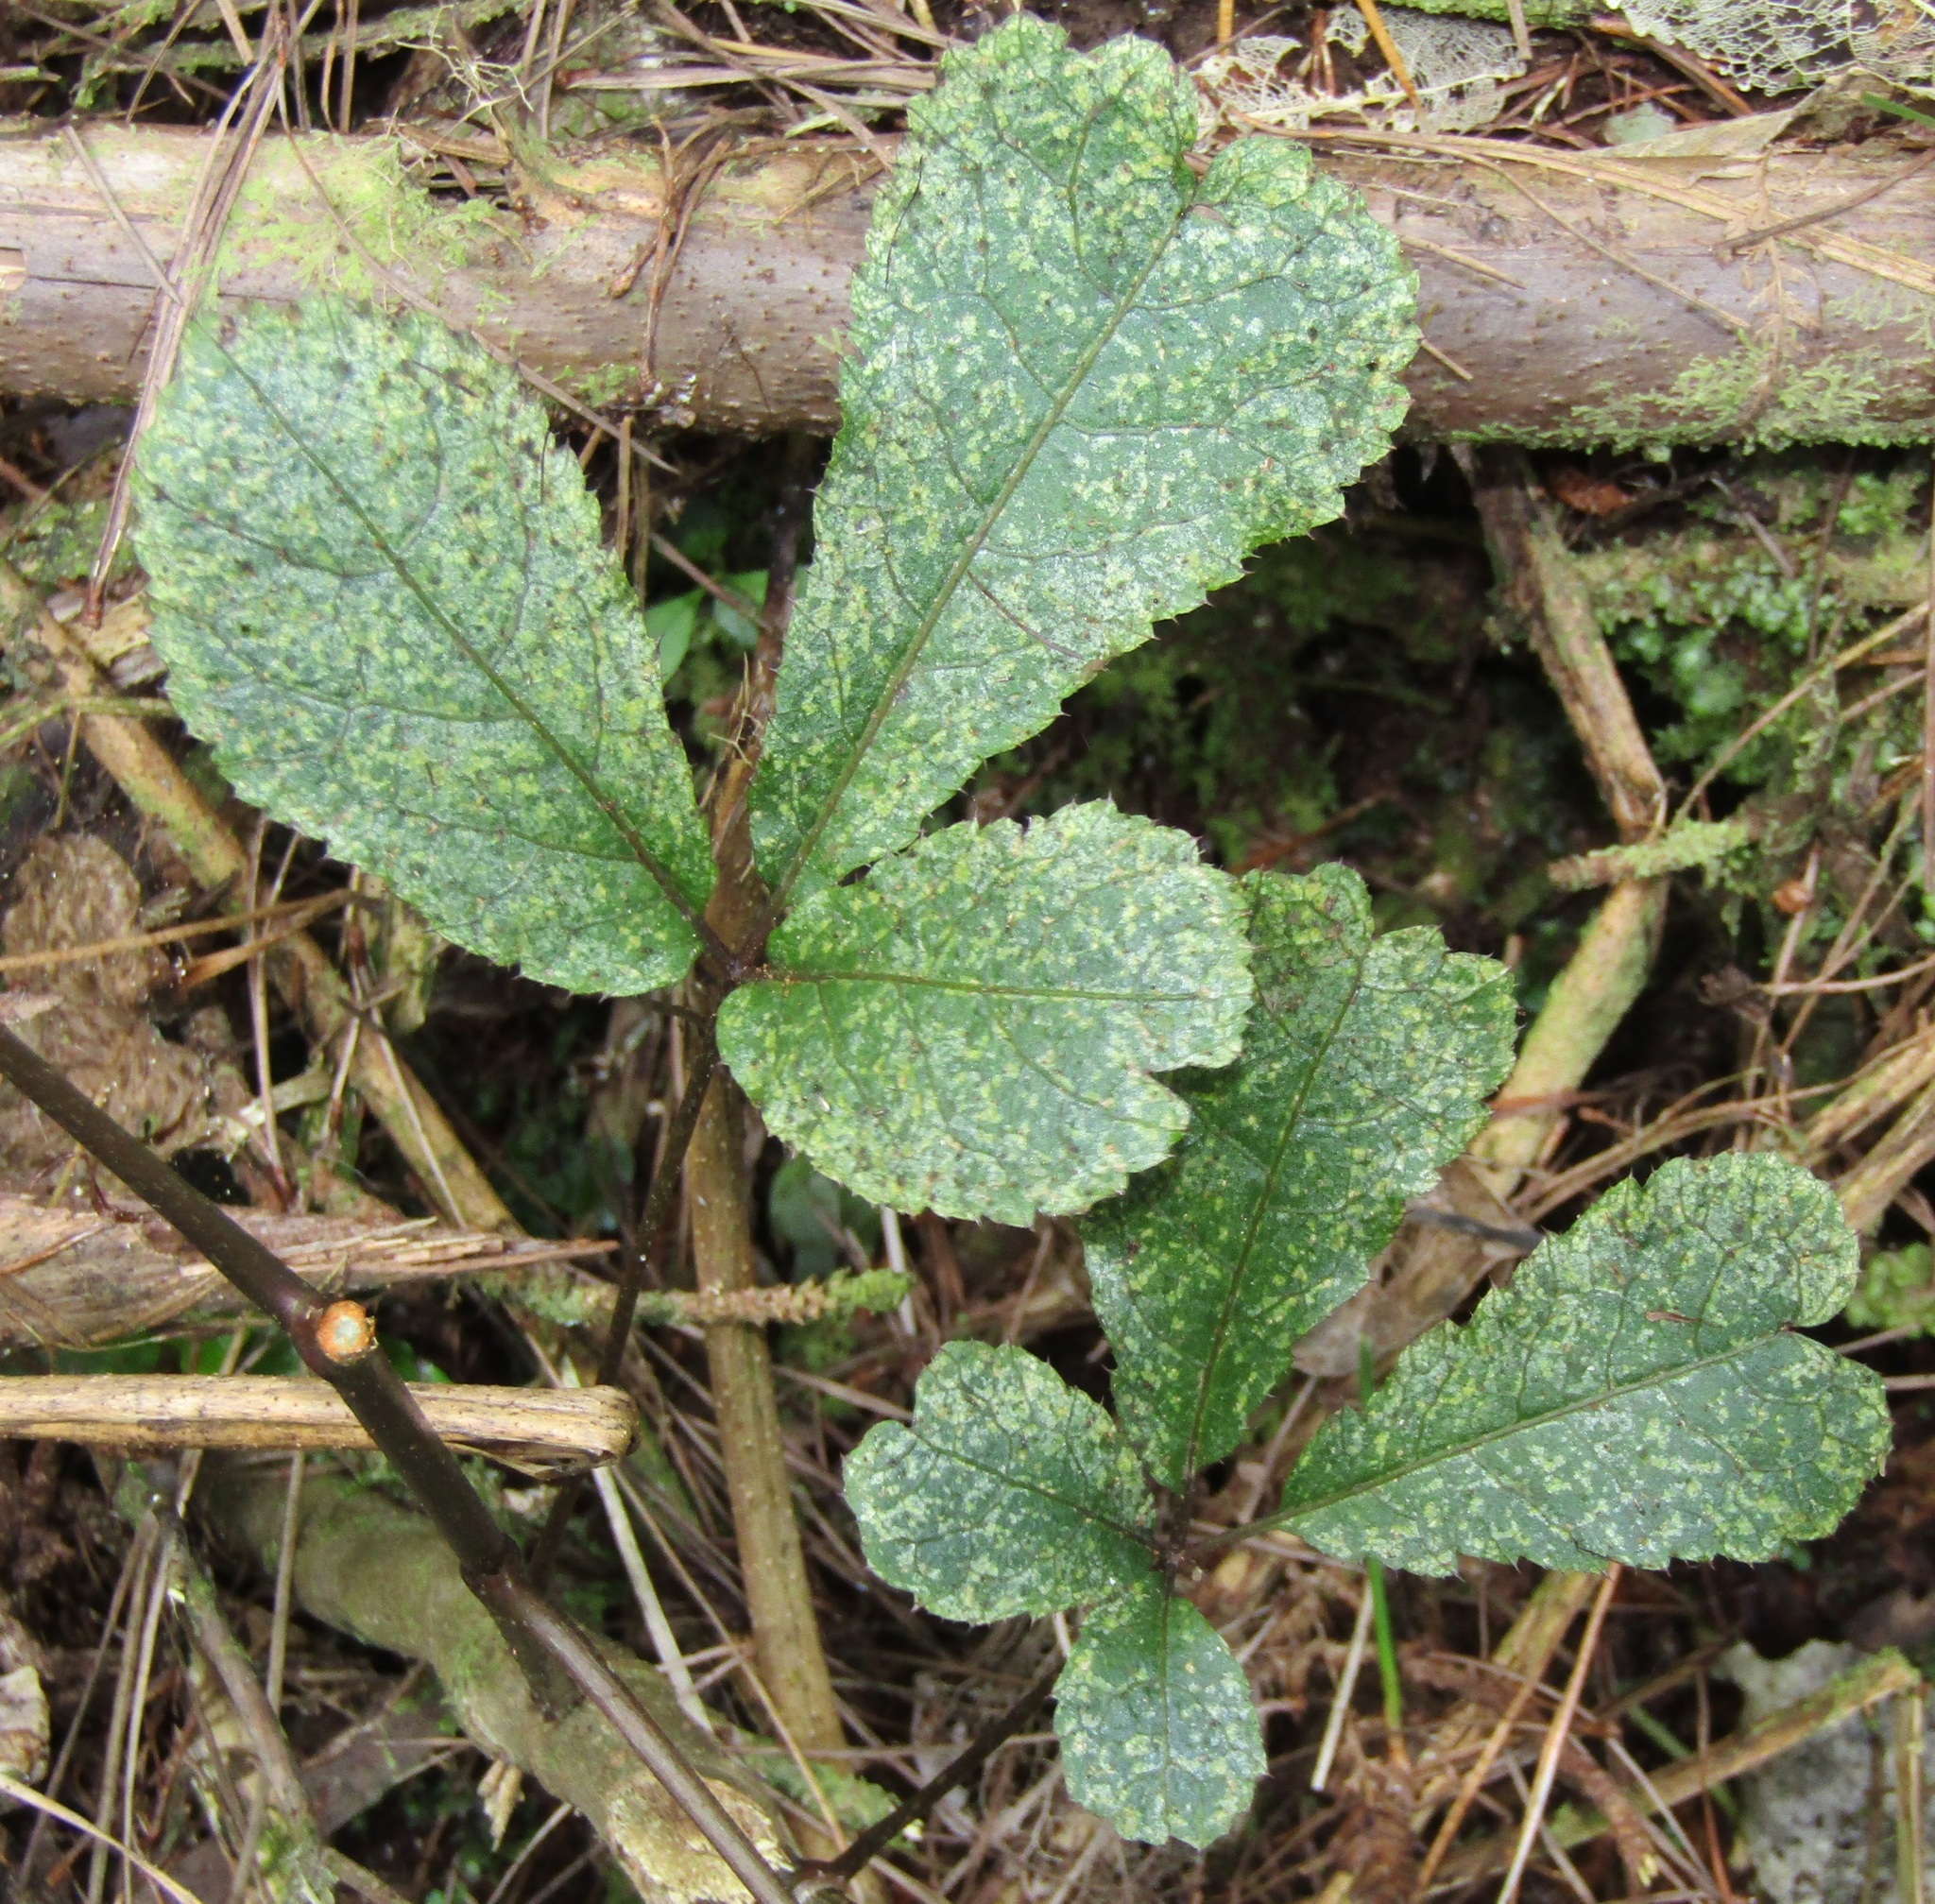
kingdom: Plantae
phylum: Tracheophyta
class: Magnoliopsida
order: Apiales
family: Araliaceae
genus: Schefflera
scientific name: Schefflera digitata
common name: Pate
